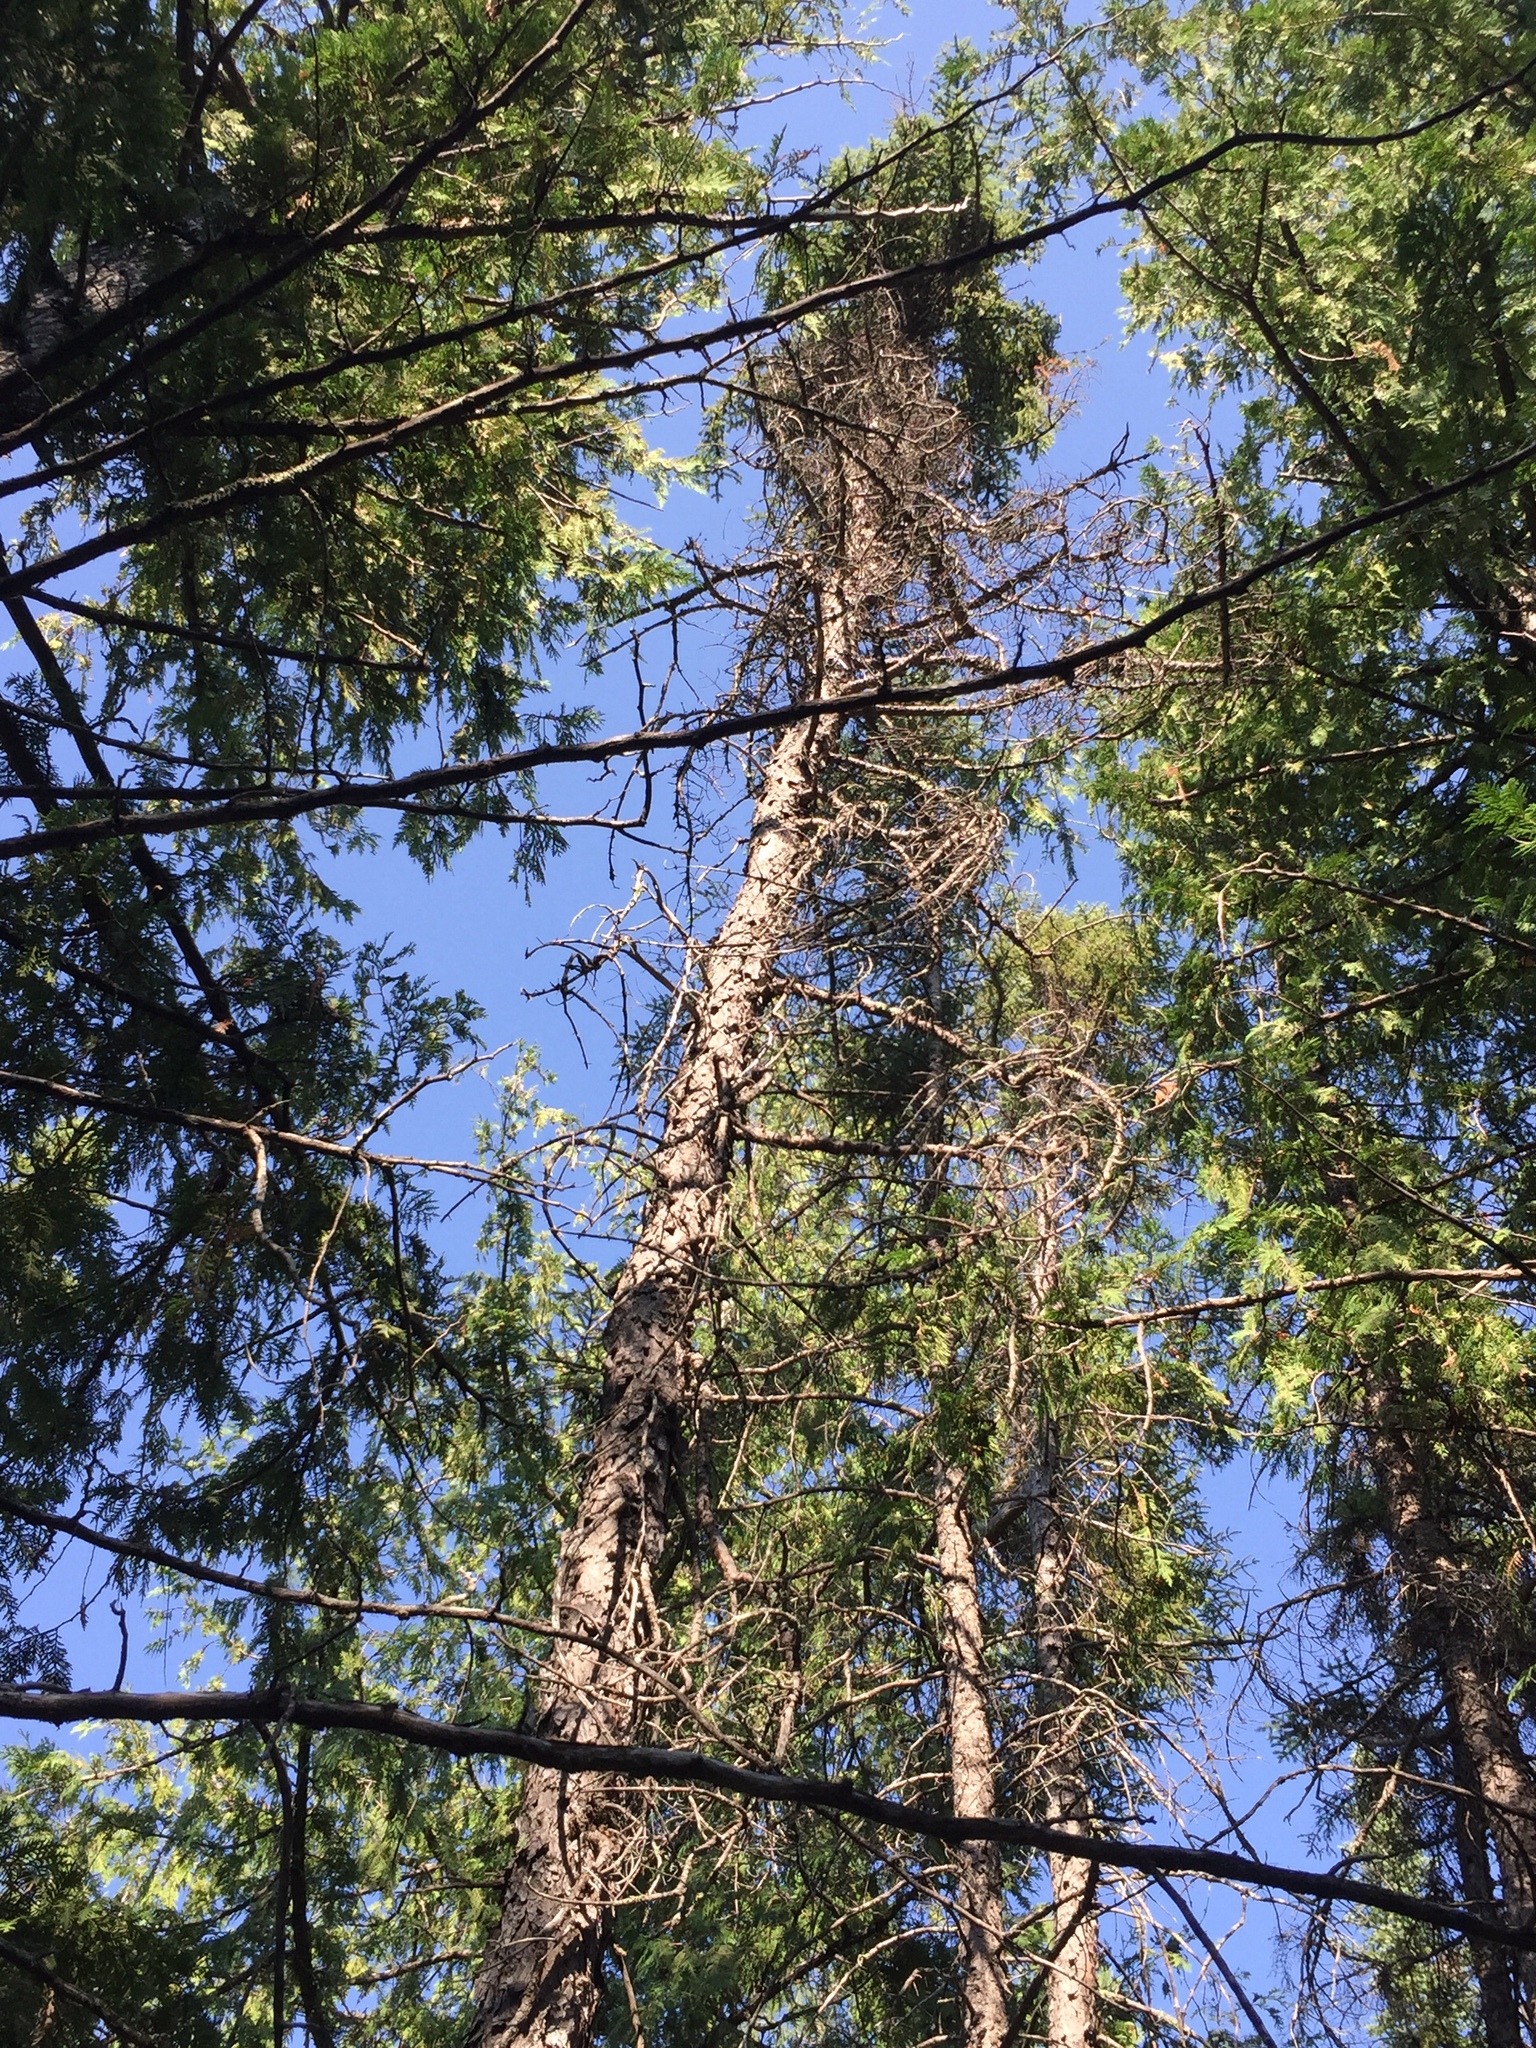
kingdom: Plantae
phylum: Tracheophyta
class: Pinopsida
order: Pinales
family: Pinaceae
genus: Picea
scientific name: Picea mariana
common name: Black spruce
